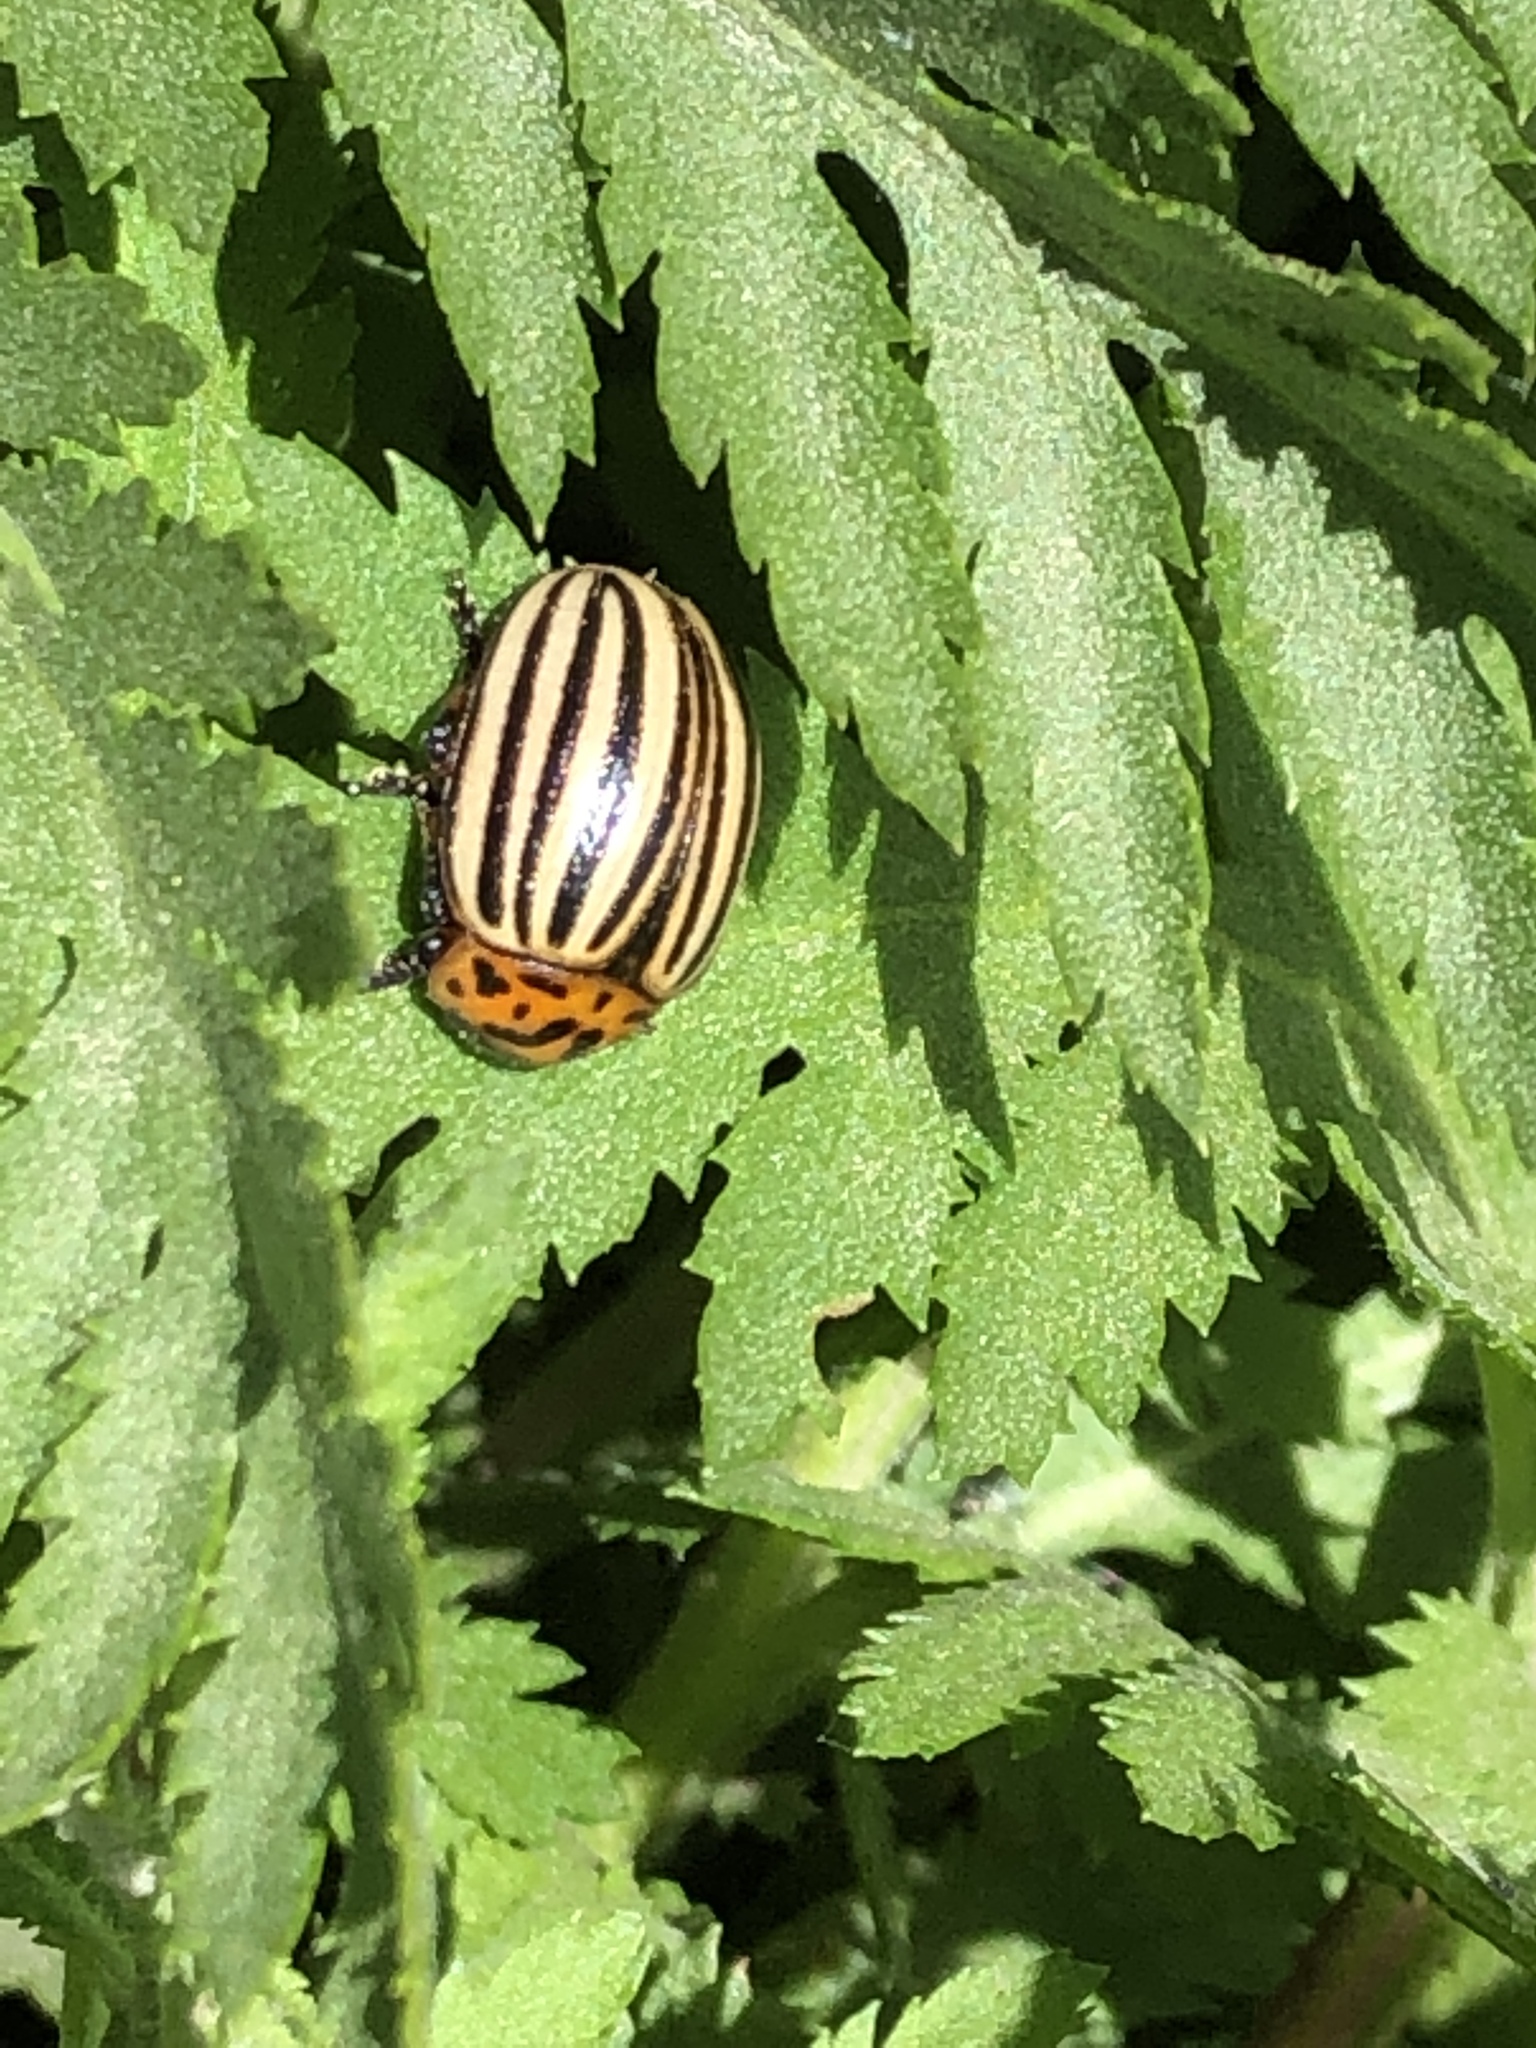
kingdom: Animalia
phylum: Arthropoda
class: Insecta
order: Coleoptera
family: Chrysomelidae
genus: Leptinotarsa
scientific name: Leptinotarsa decemlineata
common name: Colorado potato beetle
